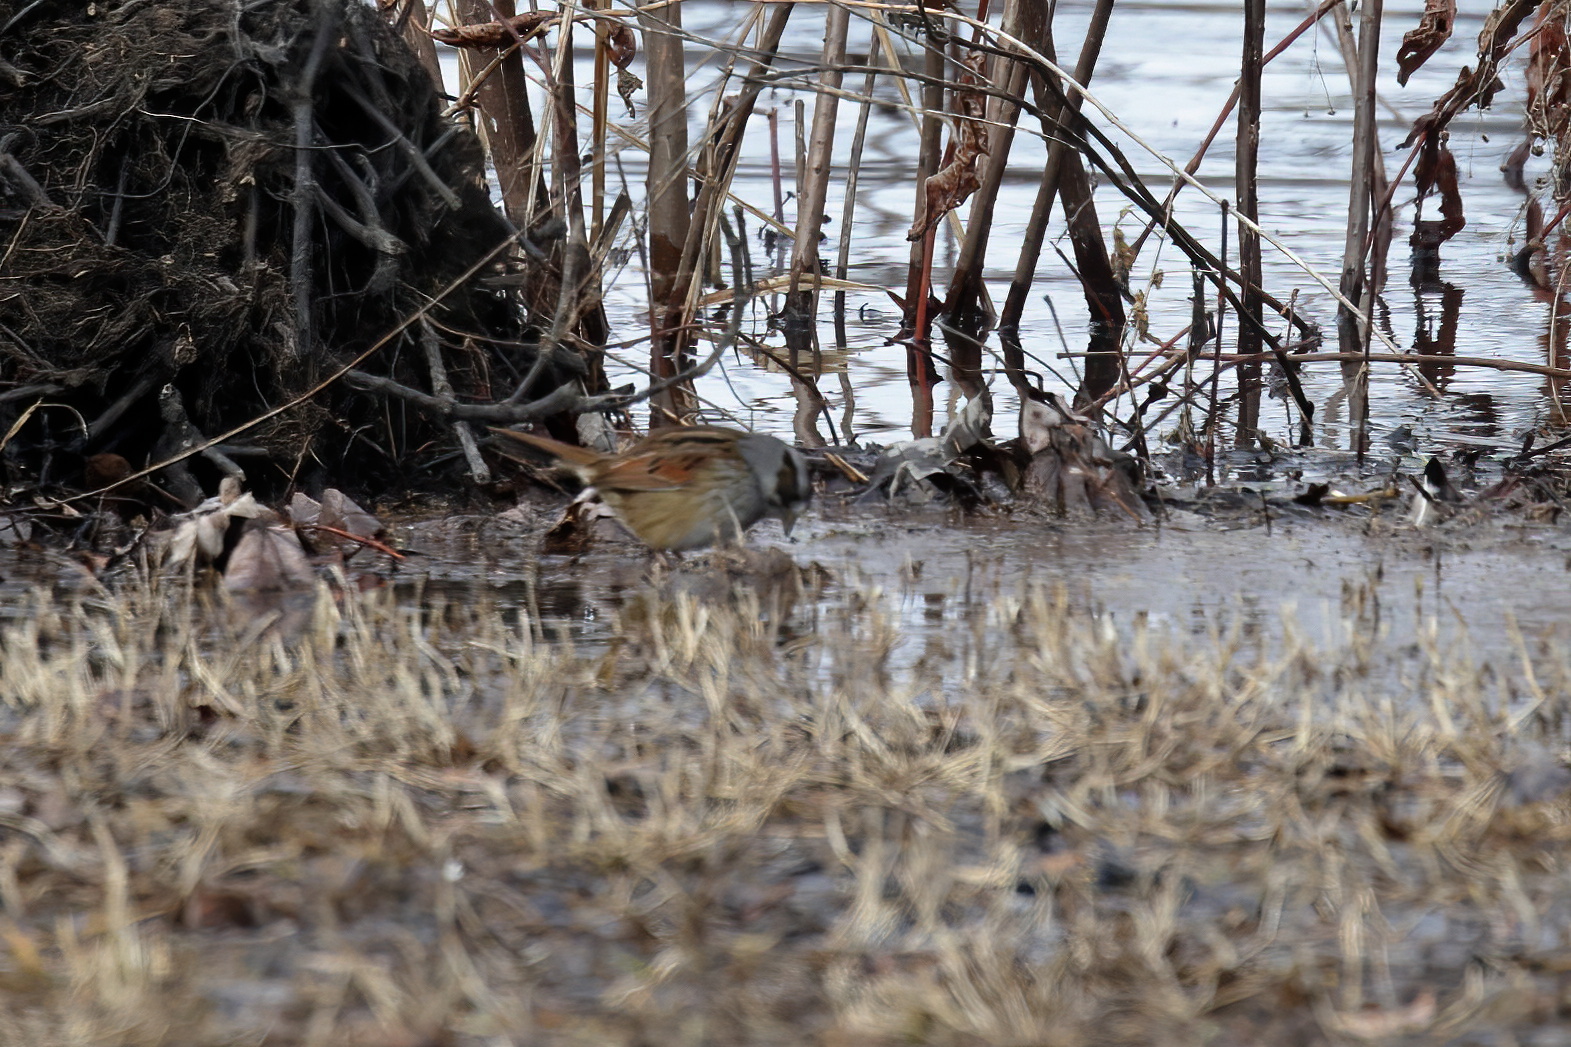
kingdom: Animalia
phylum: Chordata
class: Aves
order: Passeriformes
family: Passerellidae
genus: Melospiza
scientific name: Melospiza georgiana
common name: Swamp sparrow
